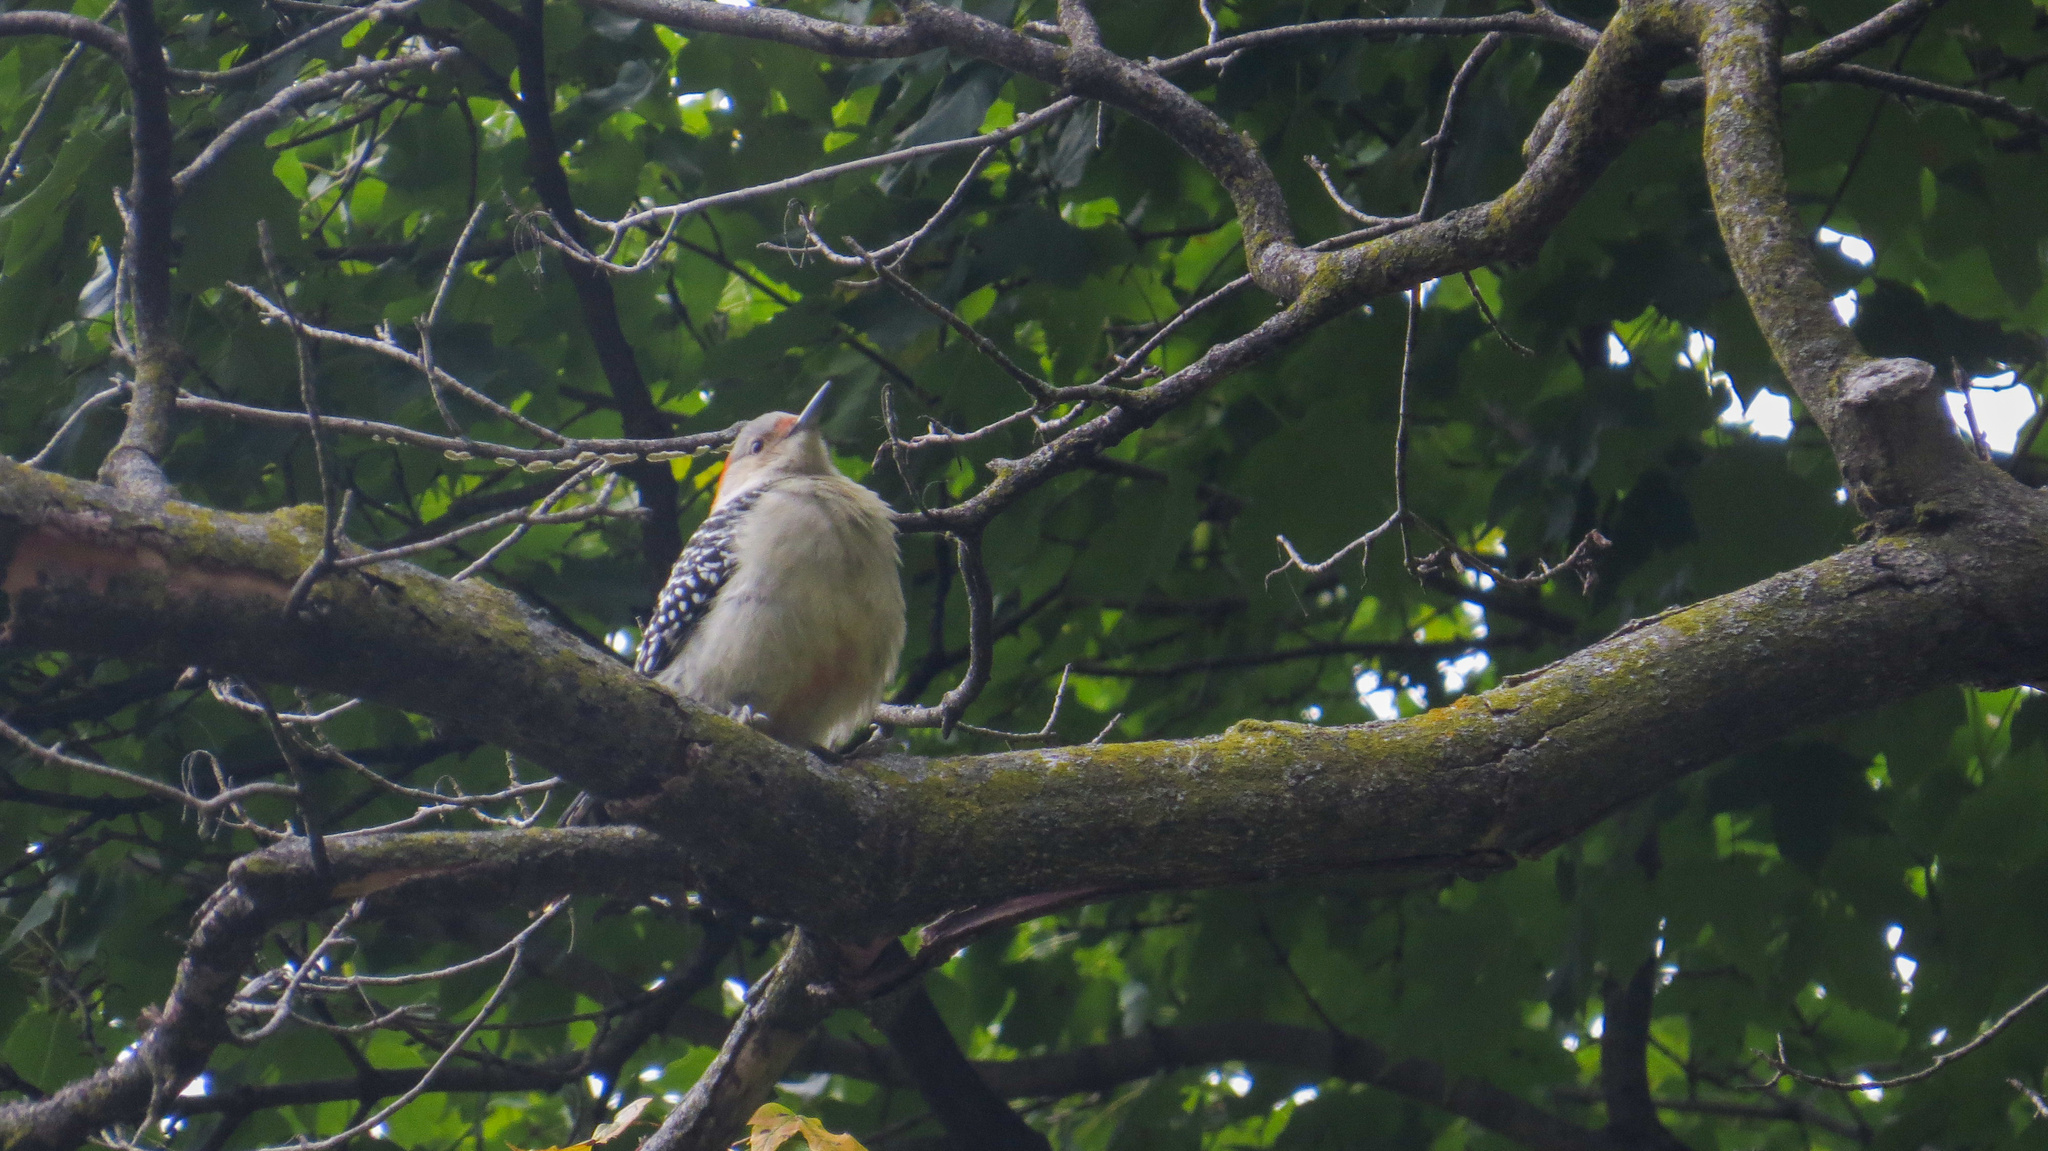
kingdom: Animalia
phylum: Chordata
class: Aves
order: Piciformes
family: Picidae
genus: Melanerpes
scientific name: Melanerpes carolinus
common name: Red-bellied woodpecker
